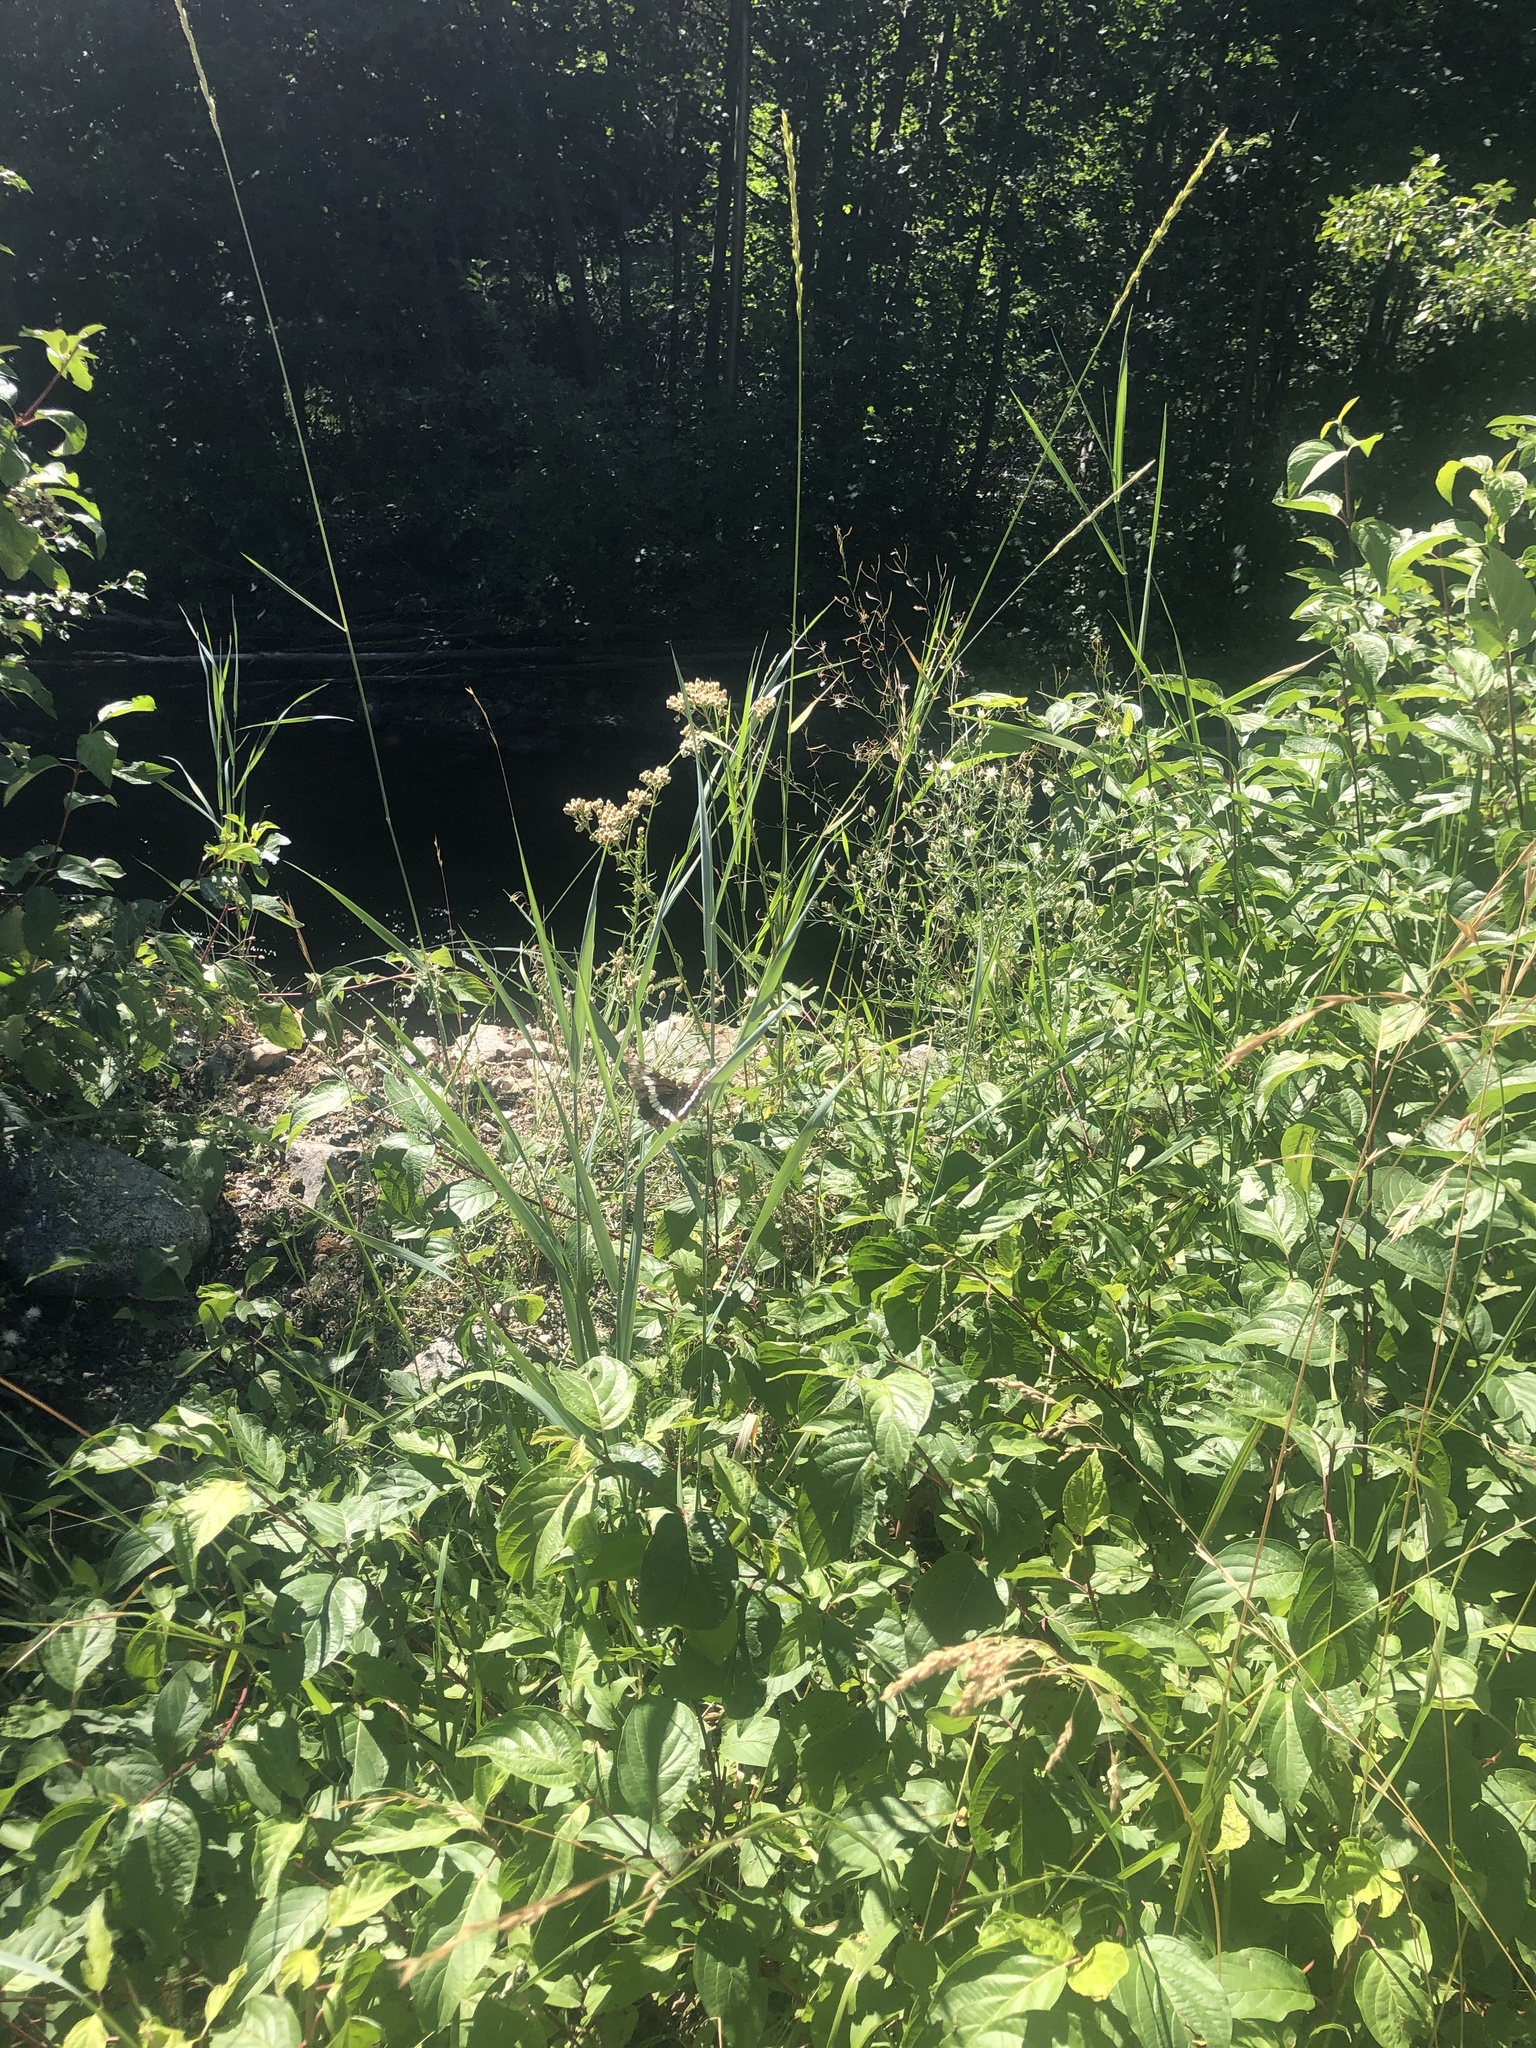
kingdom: Animalia
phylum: Arthropoda
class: Insecta
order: Lepidoptera
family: Nymphalidae
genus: Limenitis
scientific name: Limenitis lorquini
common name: Lorquin's admiral
